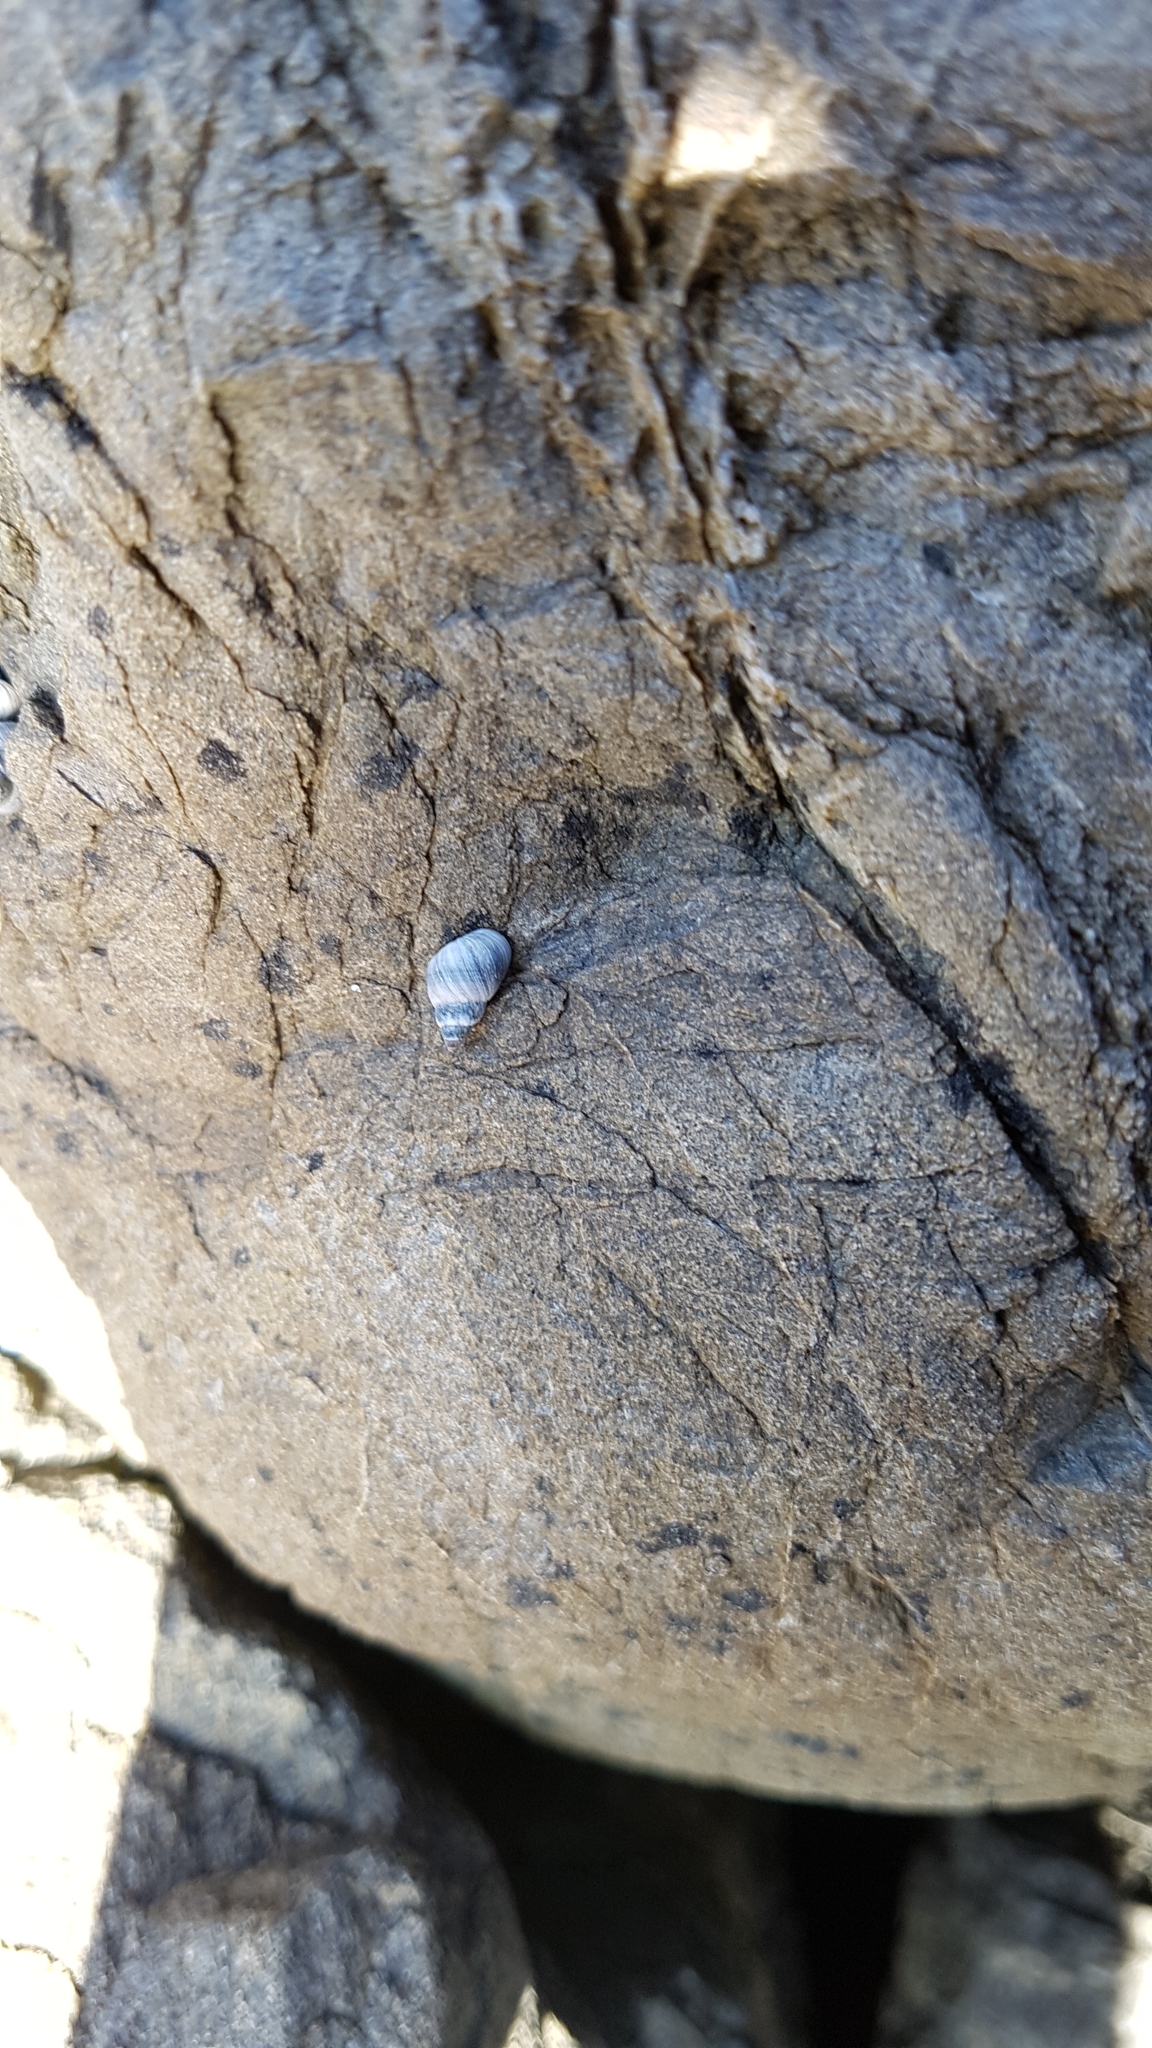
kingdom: Animalia
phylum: Mollusca
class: Gastropoda
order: Littorinimorpha
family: Littorinidae
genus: Austrolittorina
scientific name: Austrolittorina antipodum
